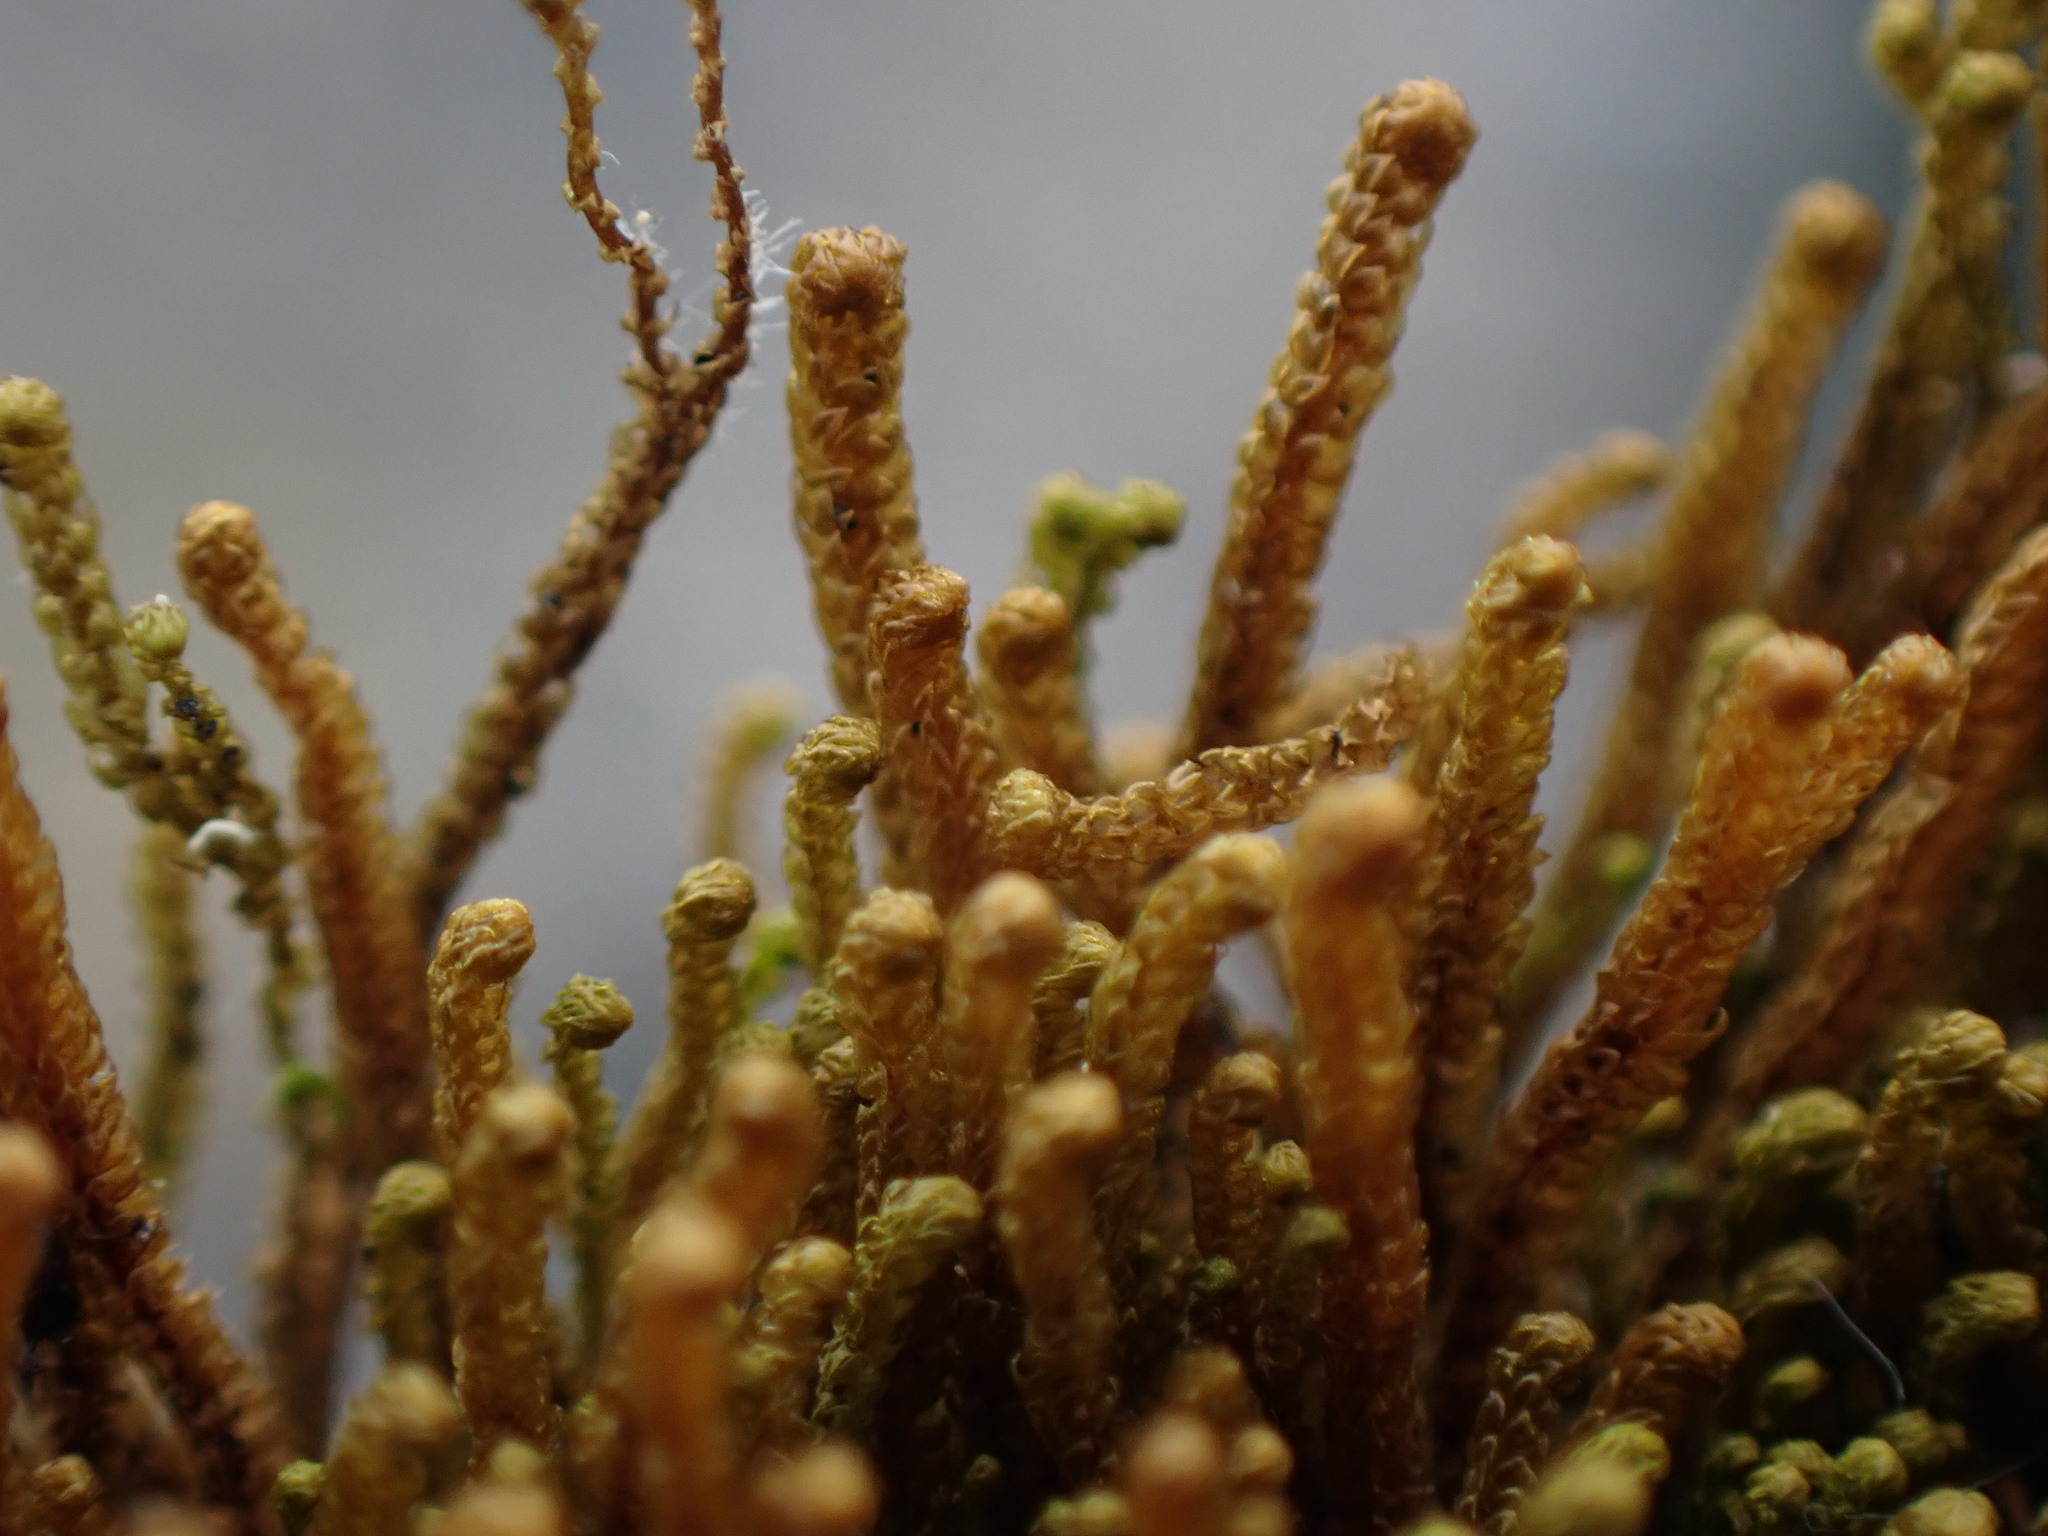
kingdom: Plantae
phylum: Marchantiophyta
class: Jungermanniopsida
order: Jungermanniales
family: Anastrophyllaceae
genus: Tetralophozia
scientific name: Tetralophozia setiformis
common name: Monster pawwort
